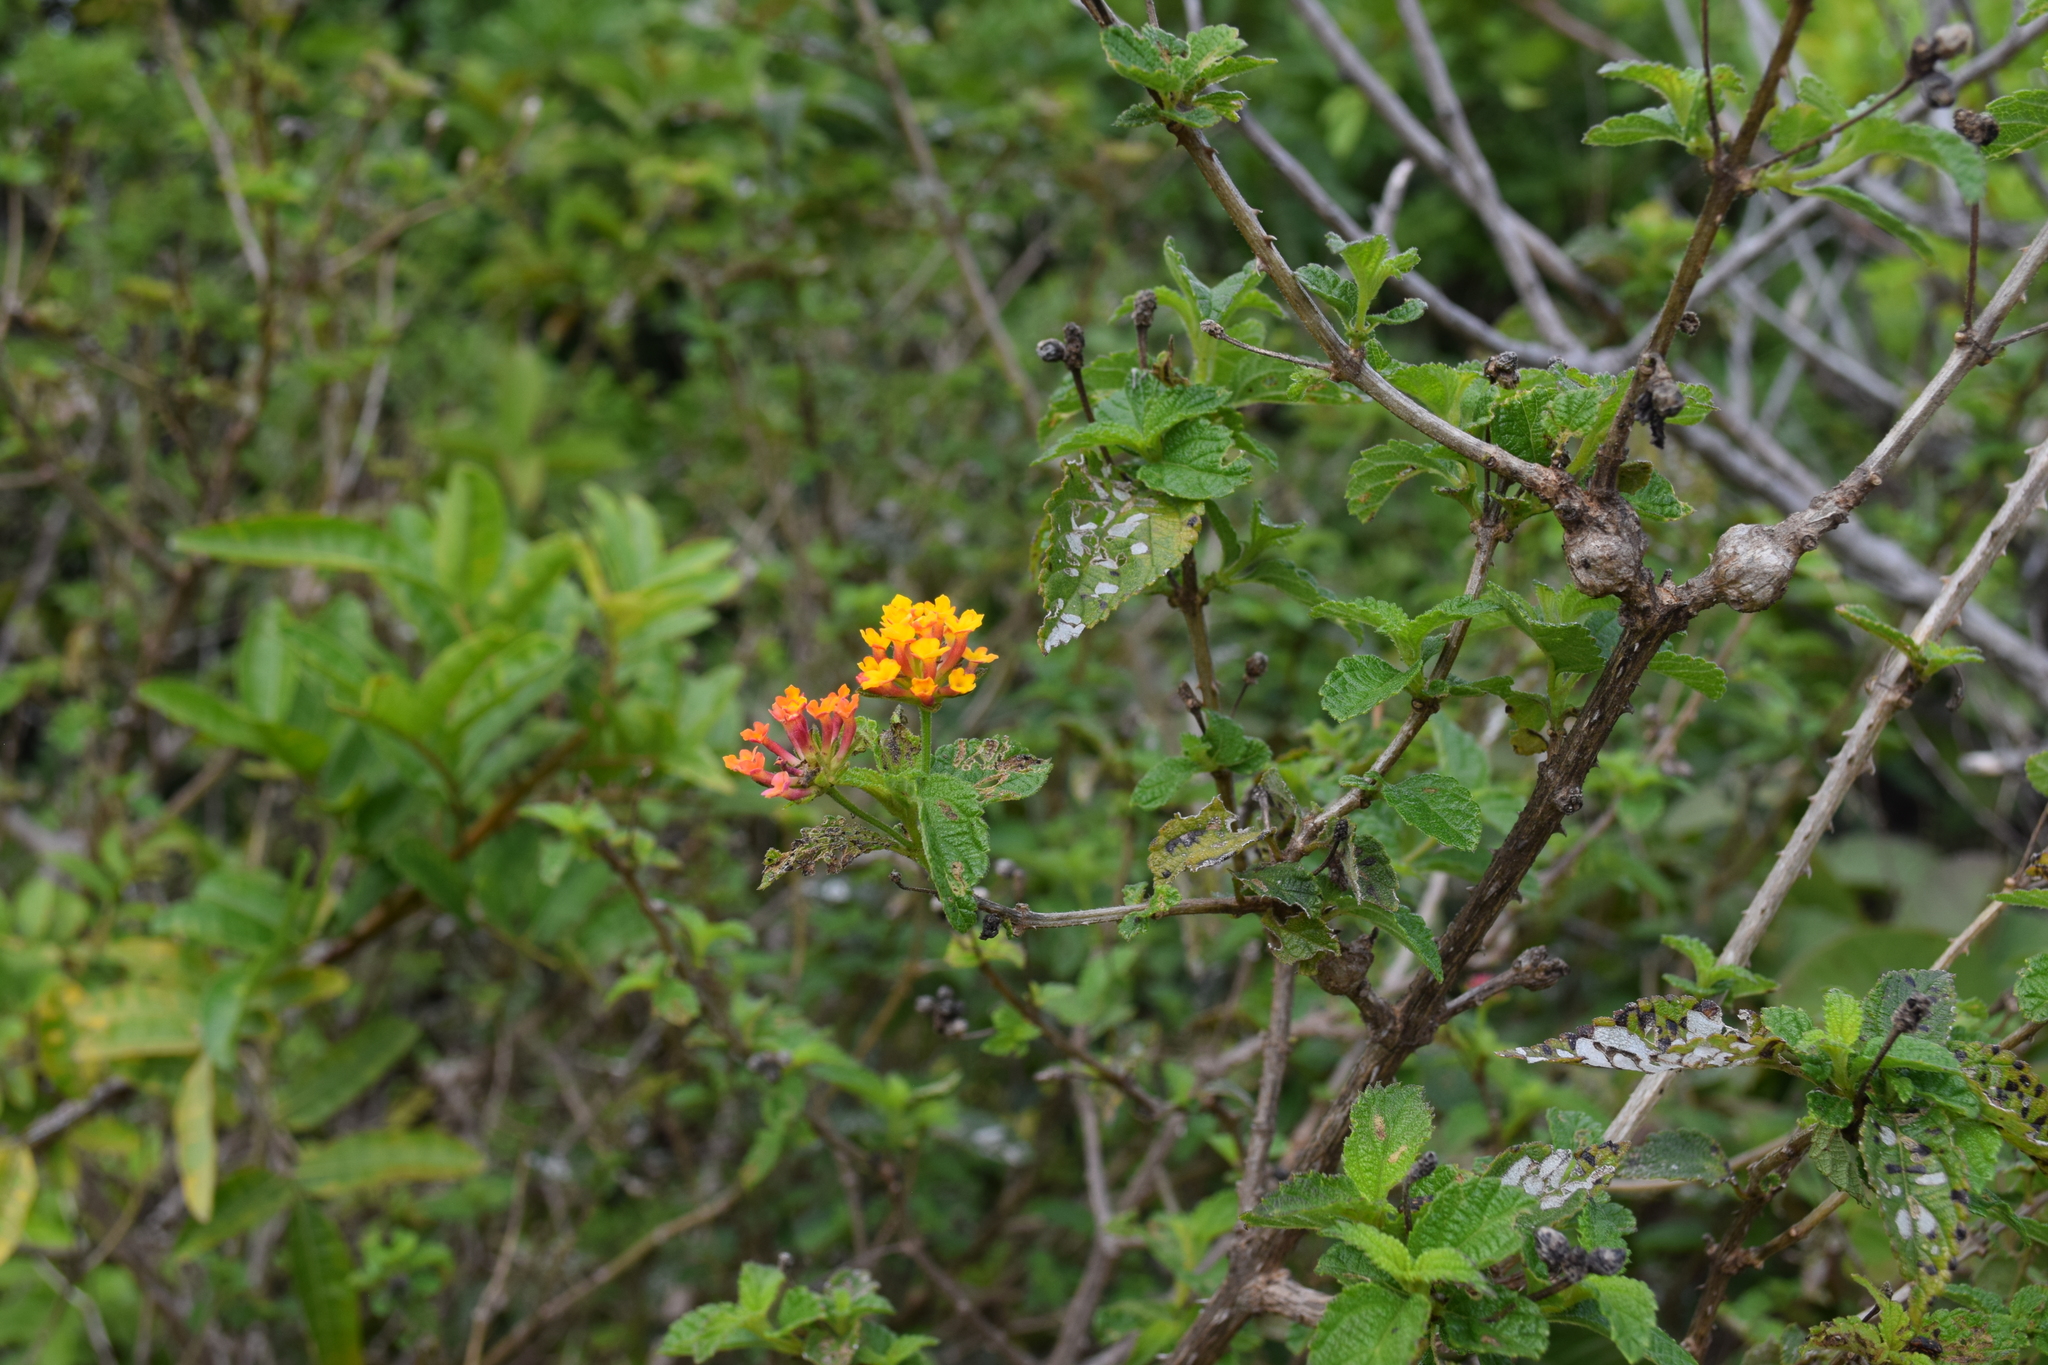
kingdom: Plantae
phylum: Tracheophyta
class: Magnoliopsida
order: Lamiales
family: Verbenaceae
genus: Lantana
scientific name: Lantana camara
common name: Lantana
